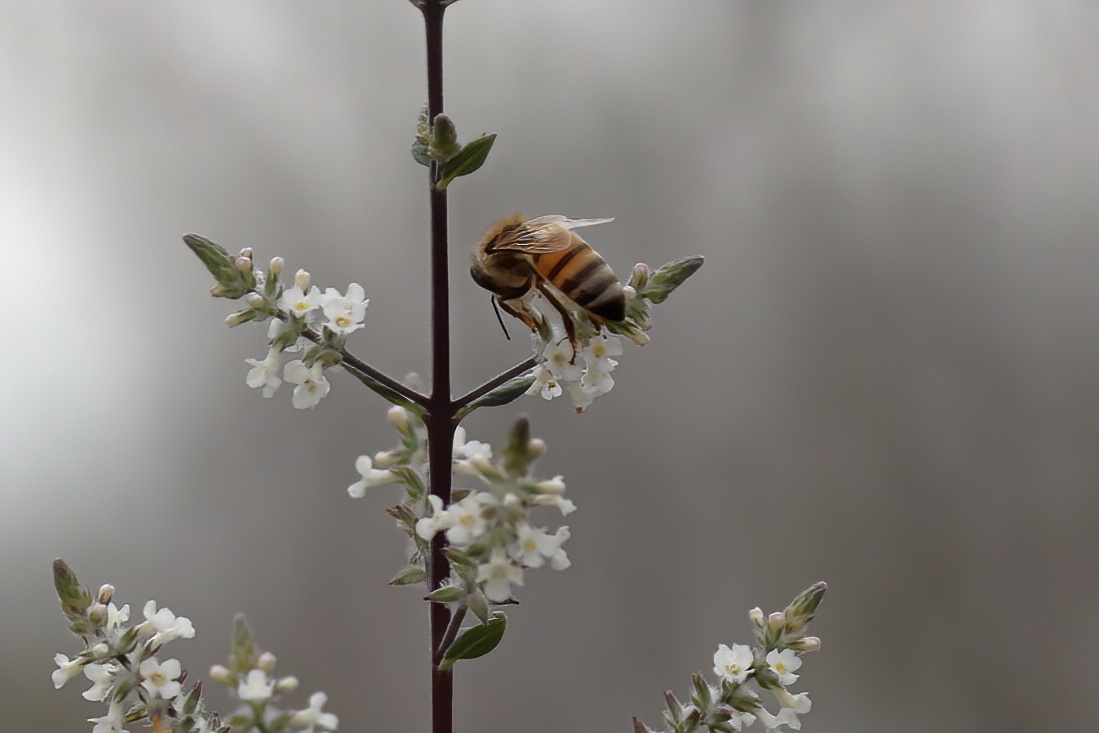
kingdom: Animalia
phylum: Arthropoda
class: Insecta
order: Hymenoptera
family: Apidae
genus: Apis
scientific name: Apis mellifera
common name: Honey bee
